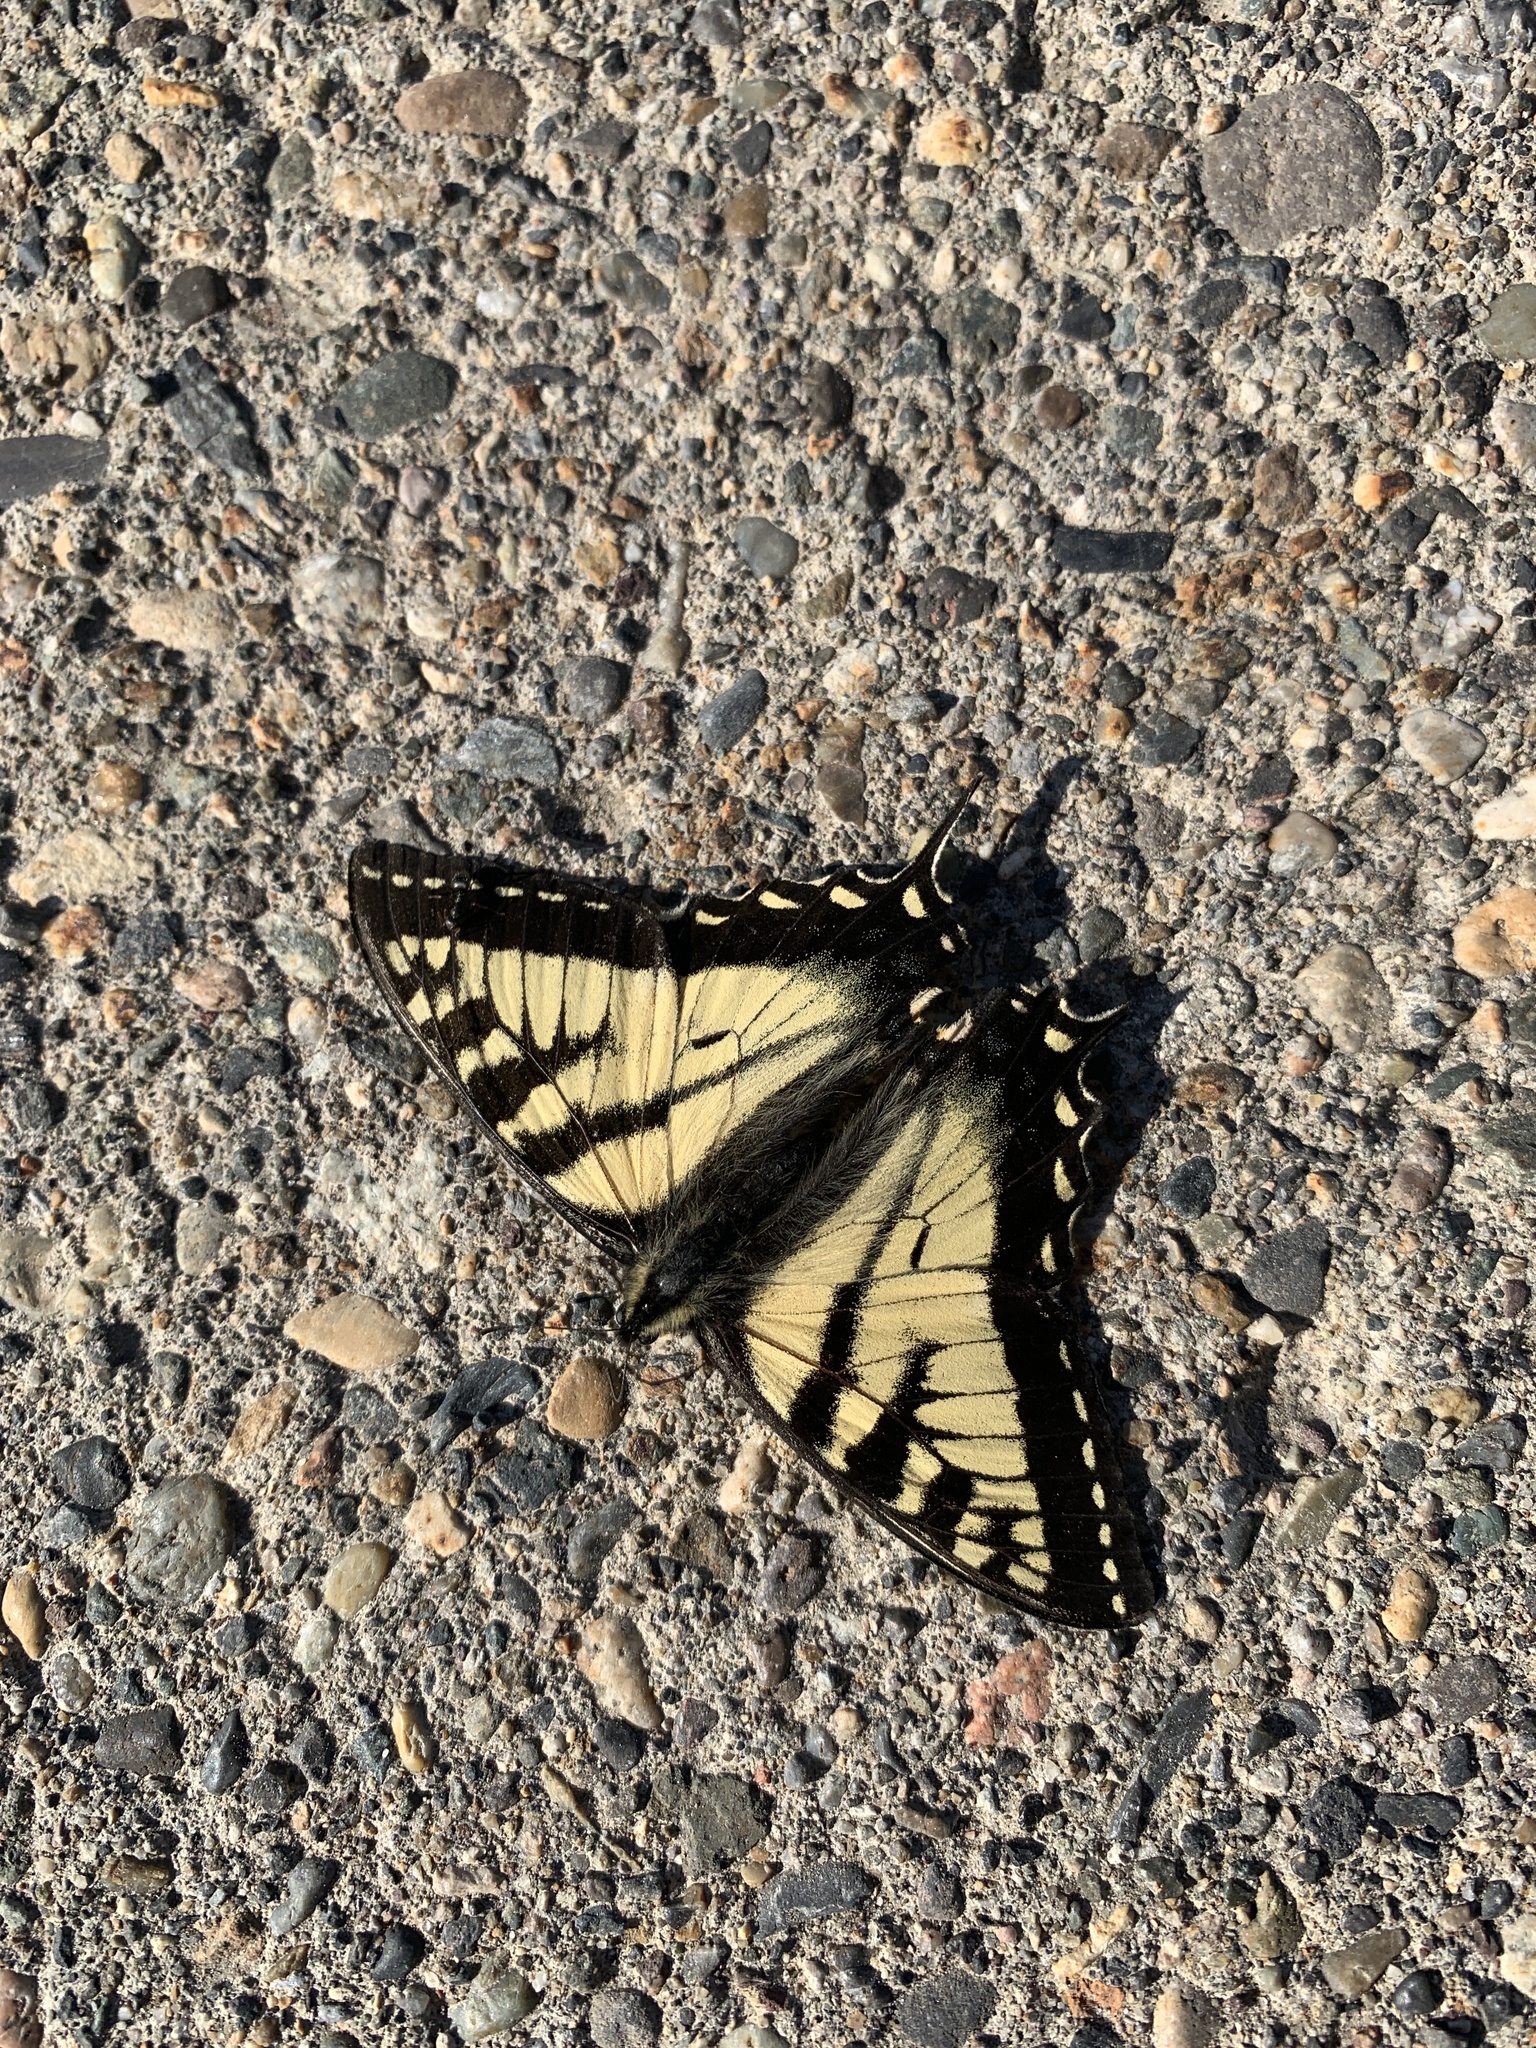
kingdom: Animalia
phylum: Arthropoda
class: Insecta
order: Lepidoptera
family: Papilionidae
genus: Papilio
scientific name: Papilio canadensis
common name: Canadian tiger swallowtail
